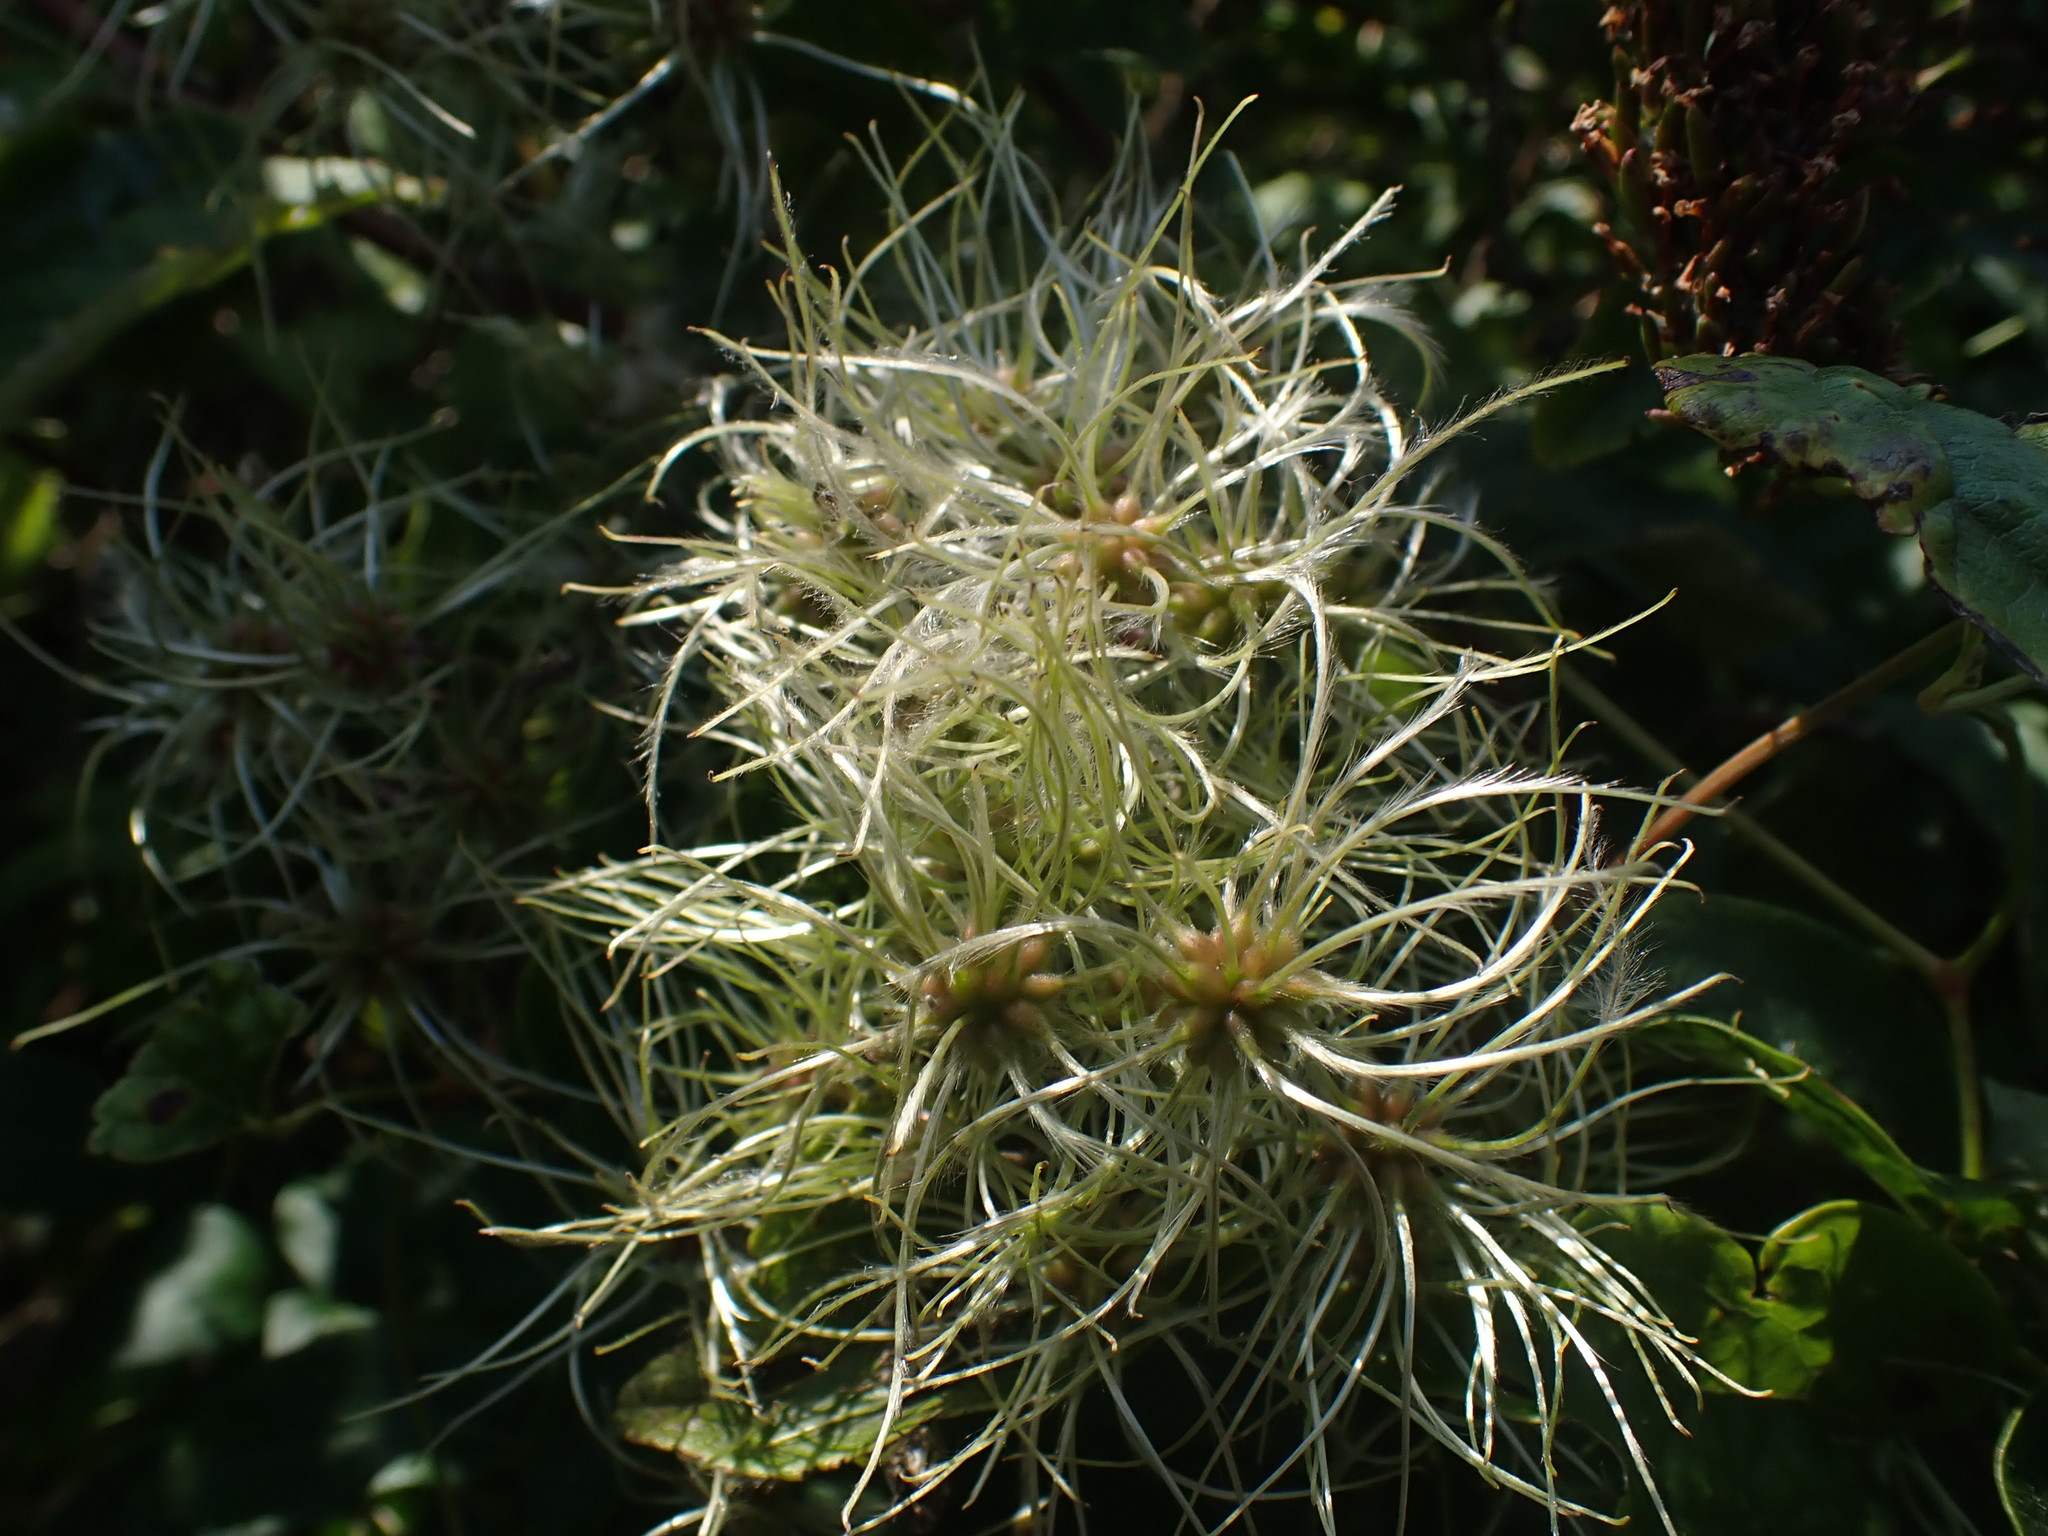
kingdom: Plantae
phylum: Tracheophyta
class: Magnoliopsida
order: Ranunculales
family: Ranunculaceae
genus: Clematis
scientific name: Clematis vitalba
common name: Evergreen clematis
